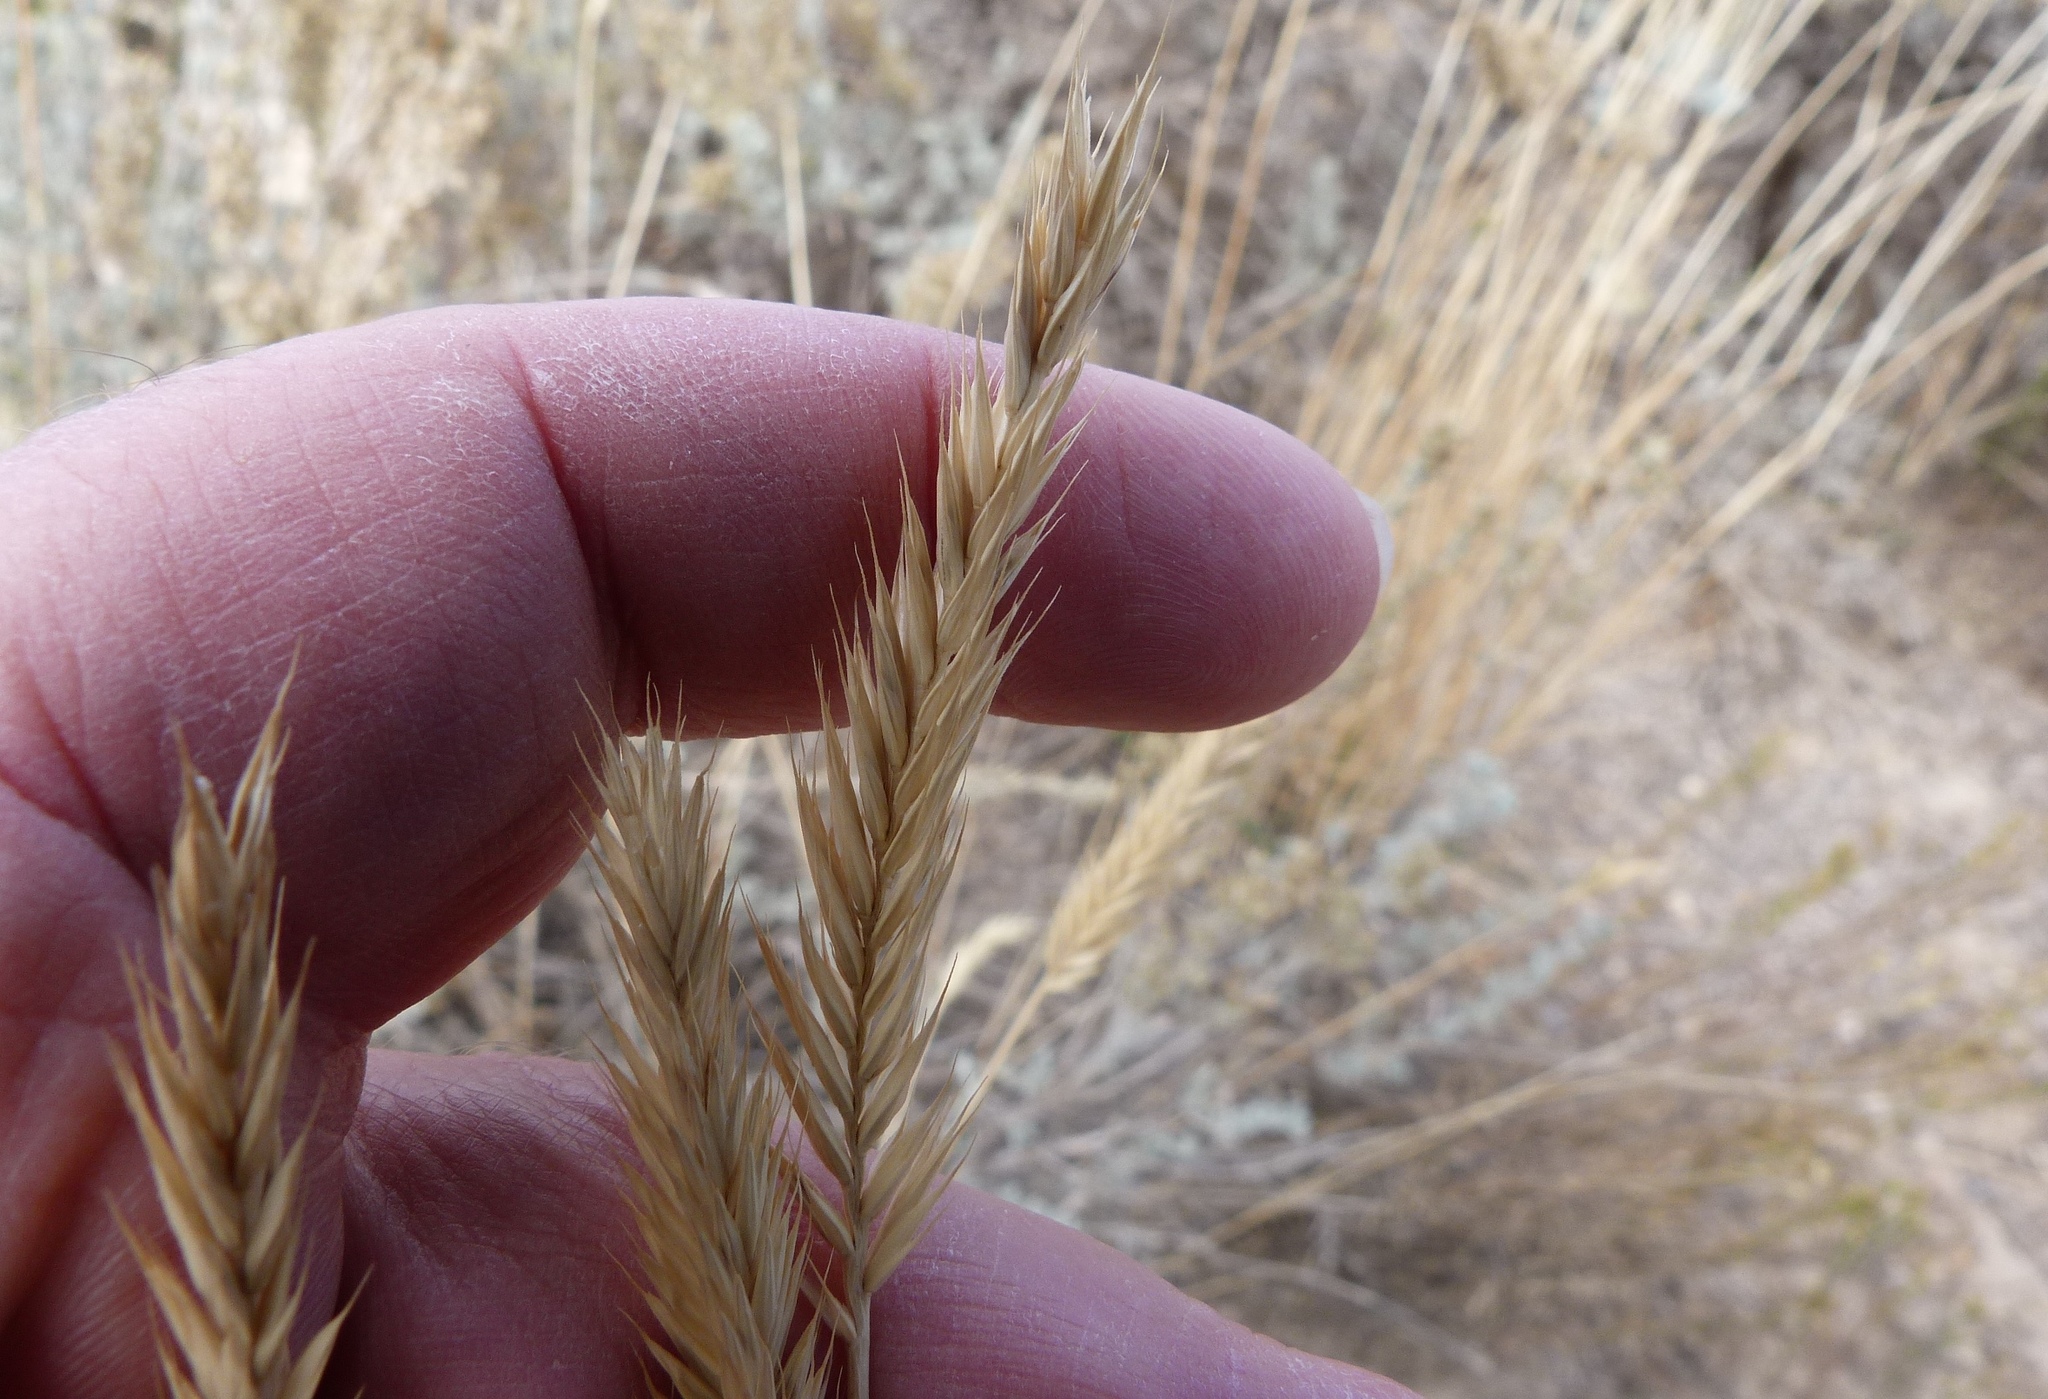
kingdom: Plantae
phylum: Tracheophyta
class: Liliopsida
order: Poales
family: Poaceae
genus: Agropyron
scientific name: Agropyron cristatum
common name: Crested wheatgrass
